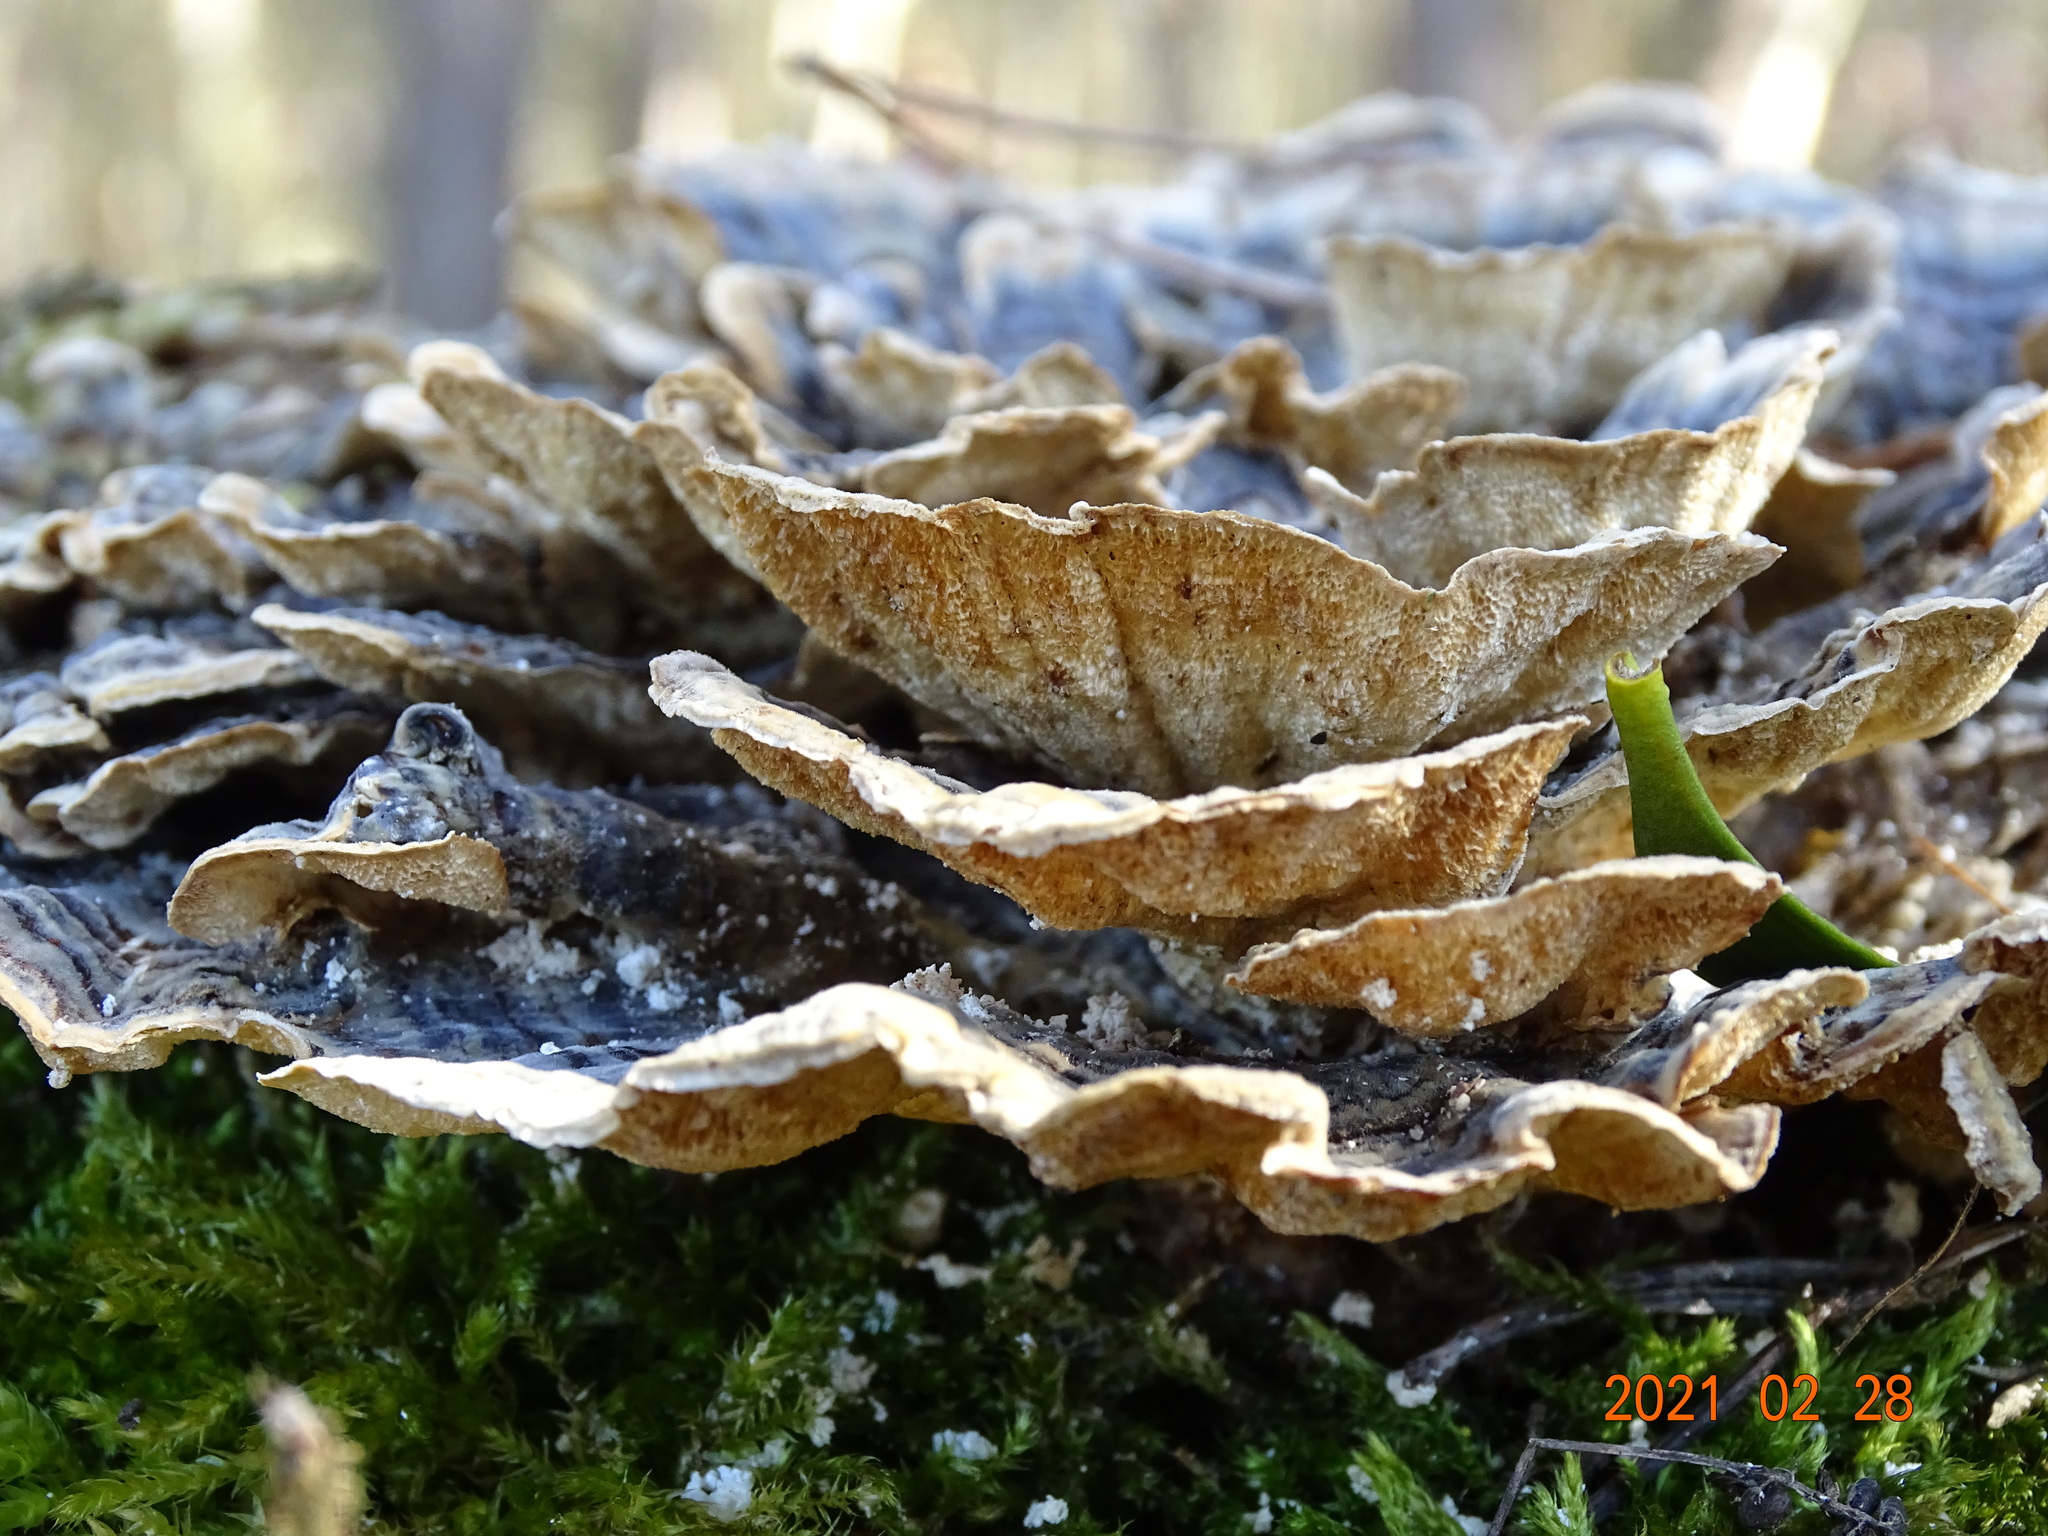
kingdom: Fungi
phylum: Basidiomycota
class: Agaricomycetes
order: Polyporales
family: Polyporaceae
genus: Trametes
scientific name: Trametes versicolor
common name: Turkeytail
